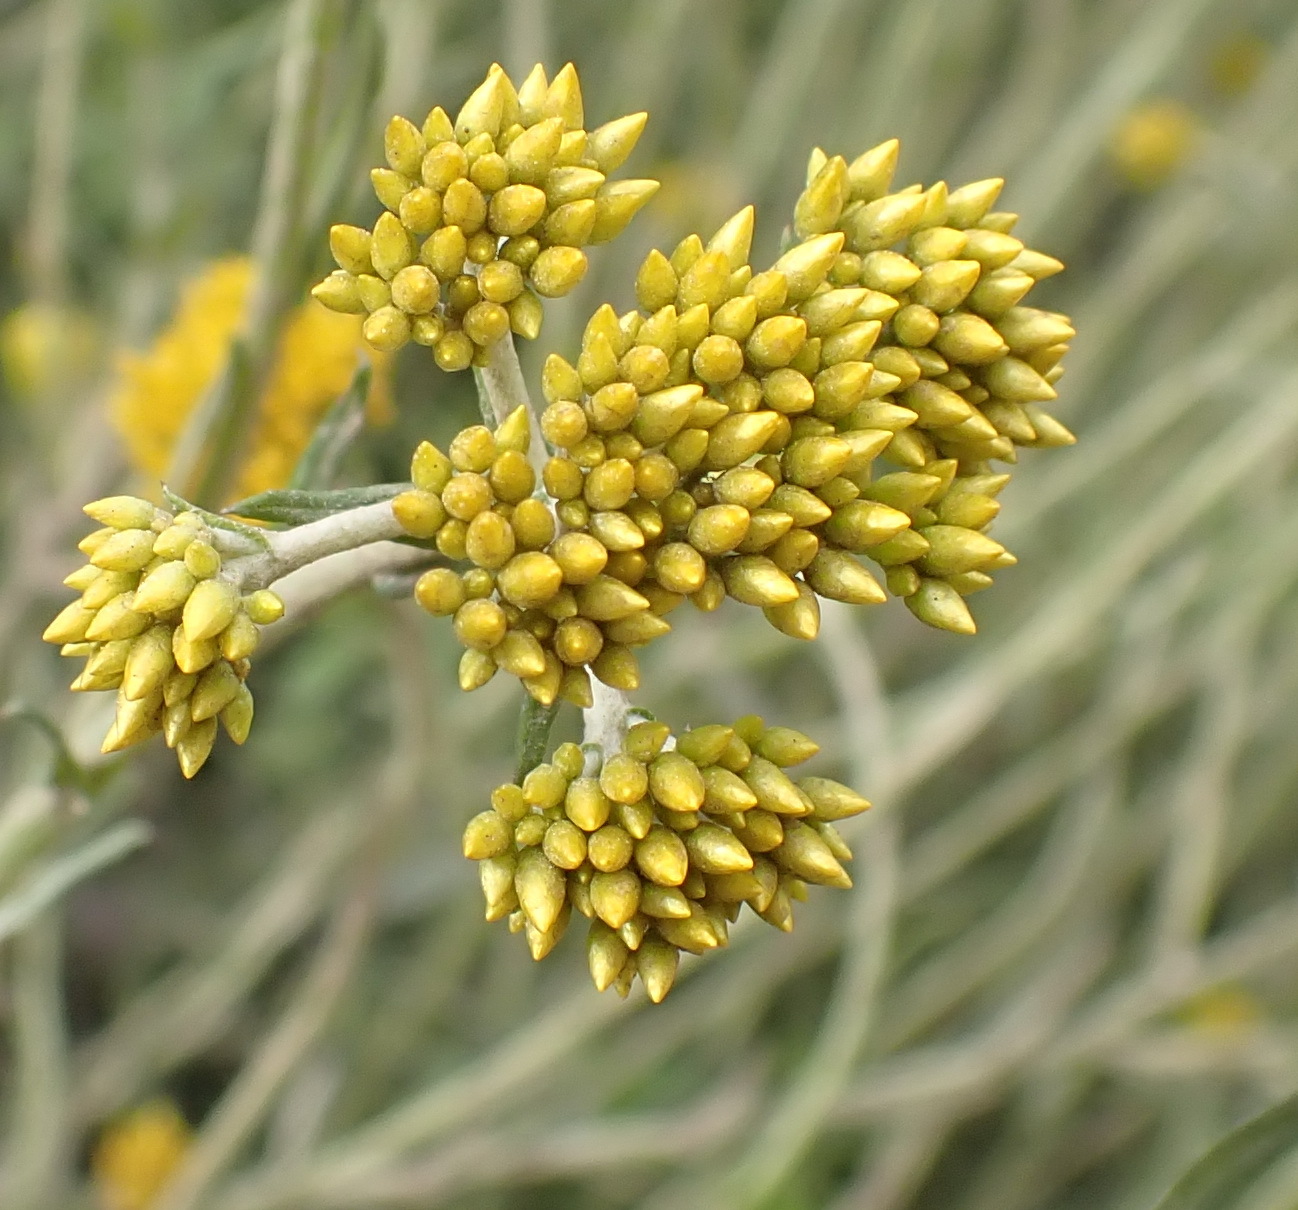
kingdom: Plantae
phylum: Tracheophyta
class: Magnoliopsida
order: Asterales
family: Asteraceae
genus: Helichrysum
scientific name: Helichrysum cymosum
